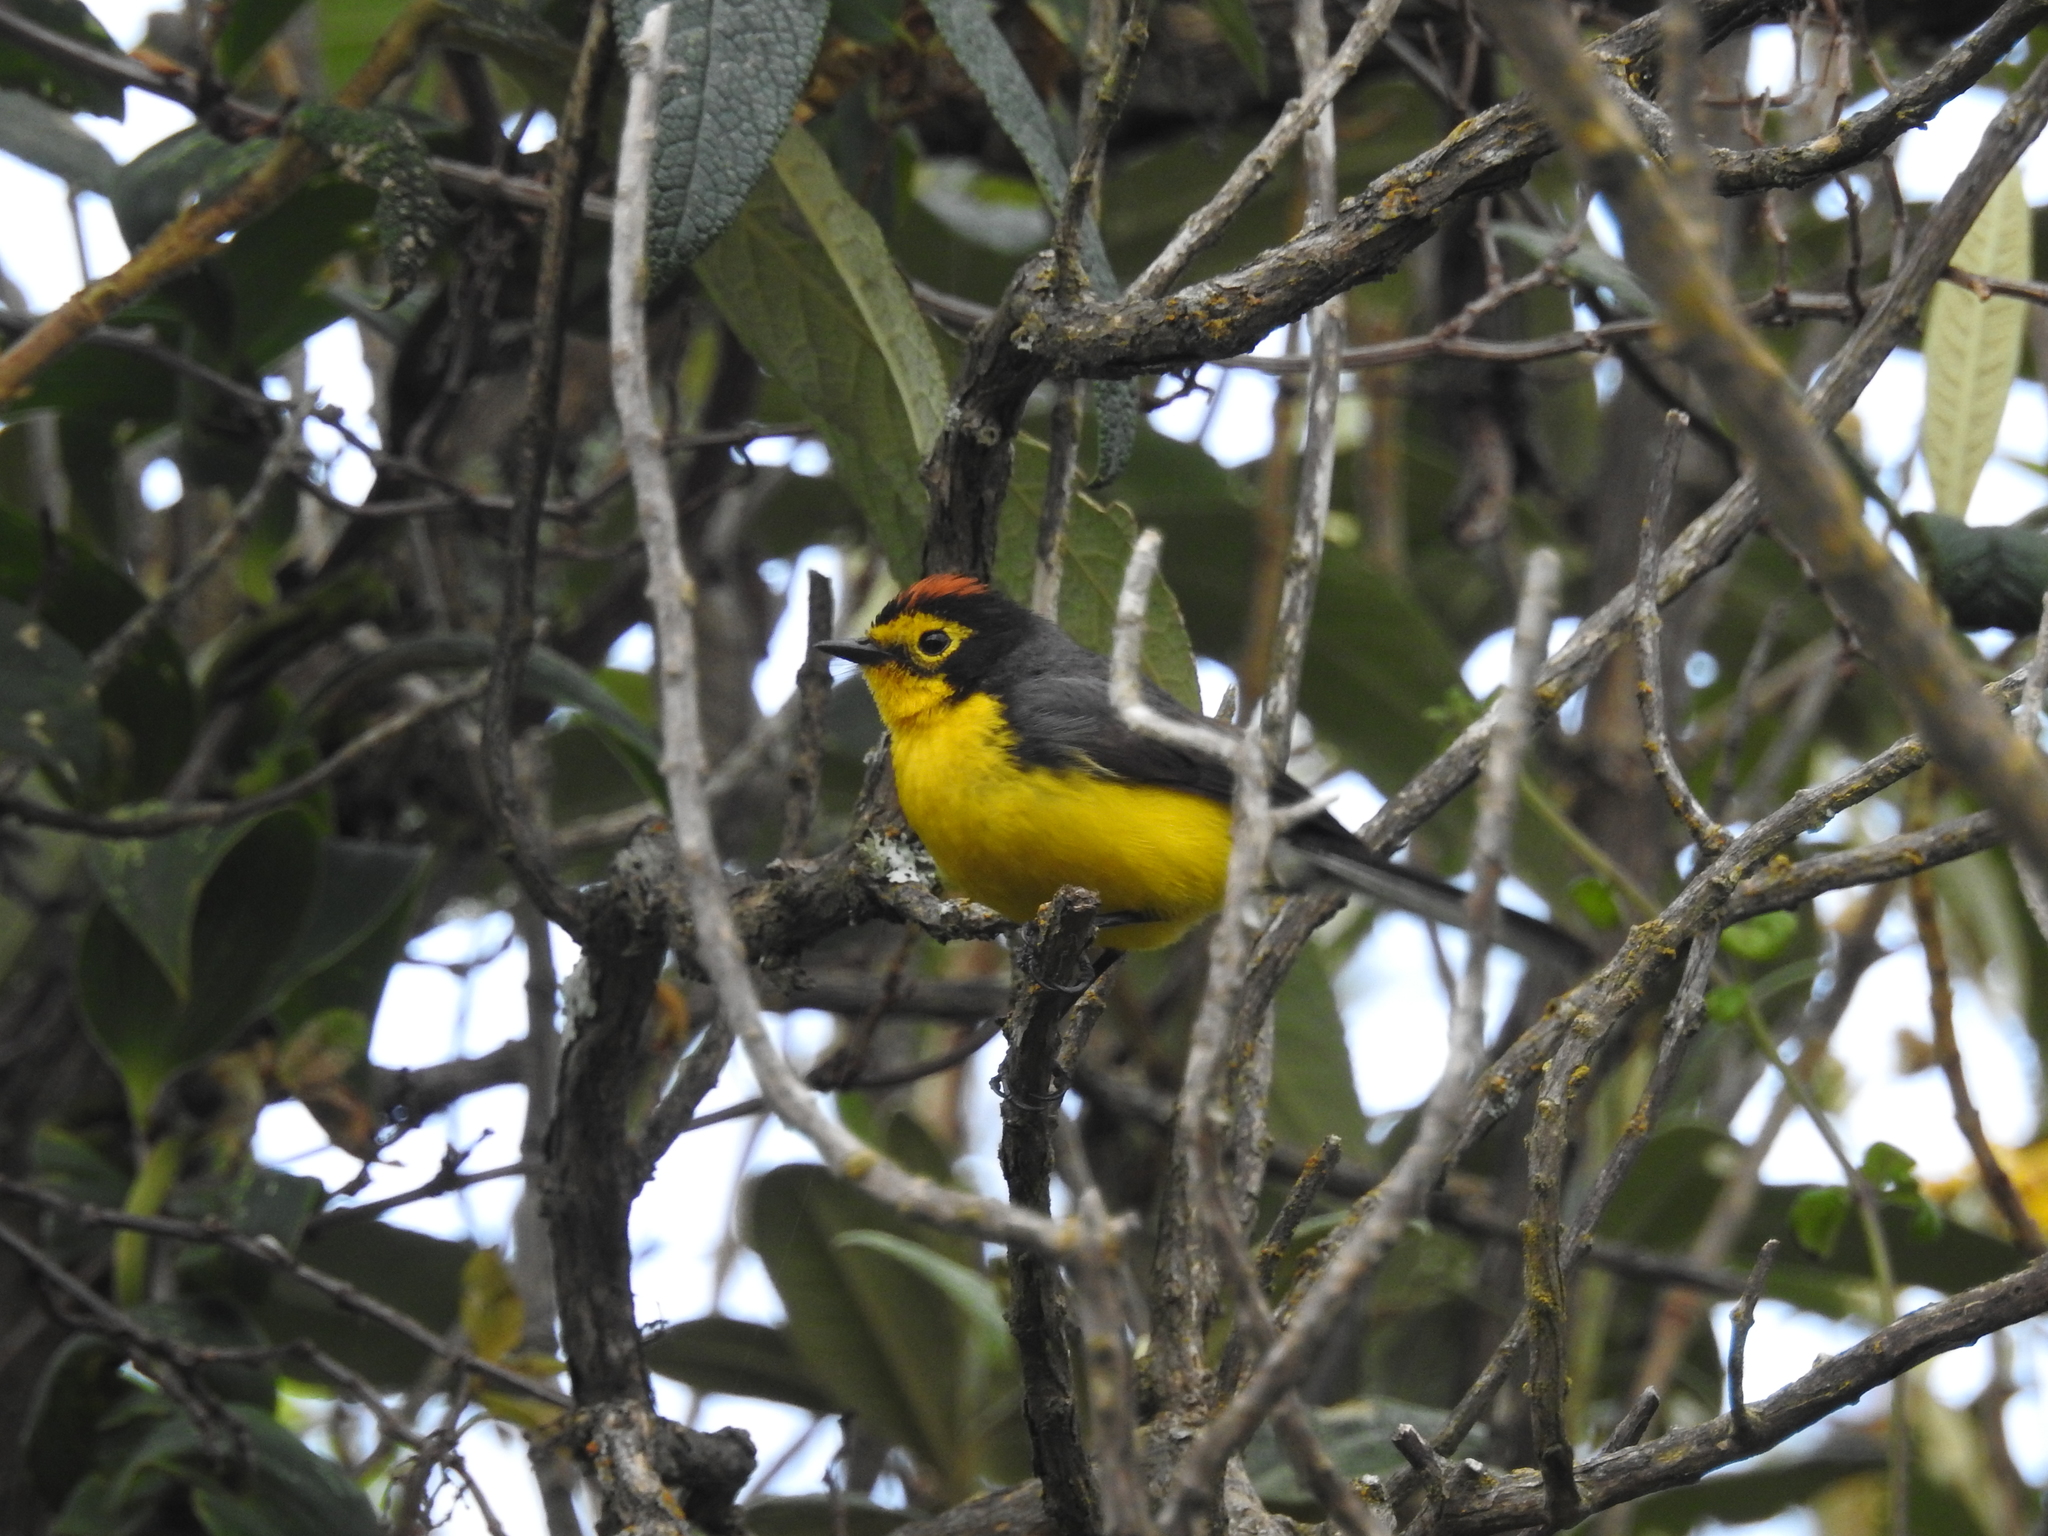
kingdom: Animalia
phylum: Chordata
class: Aves
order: Passeriformes
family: Parulidae
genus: Myioborus
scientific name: Myioborus melanocephalus
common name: Spectacled whitestart
